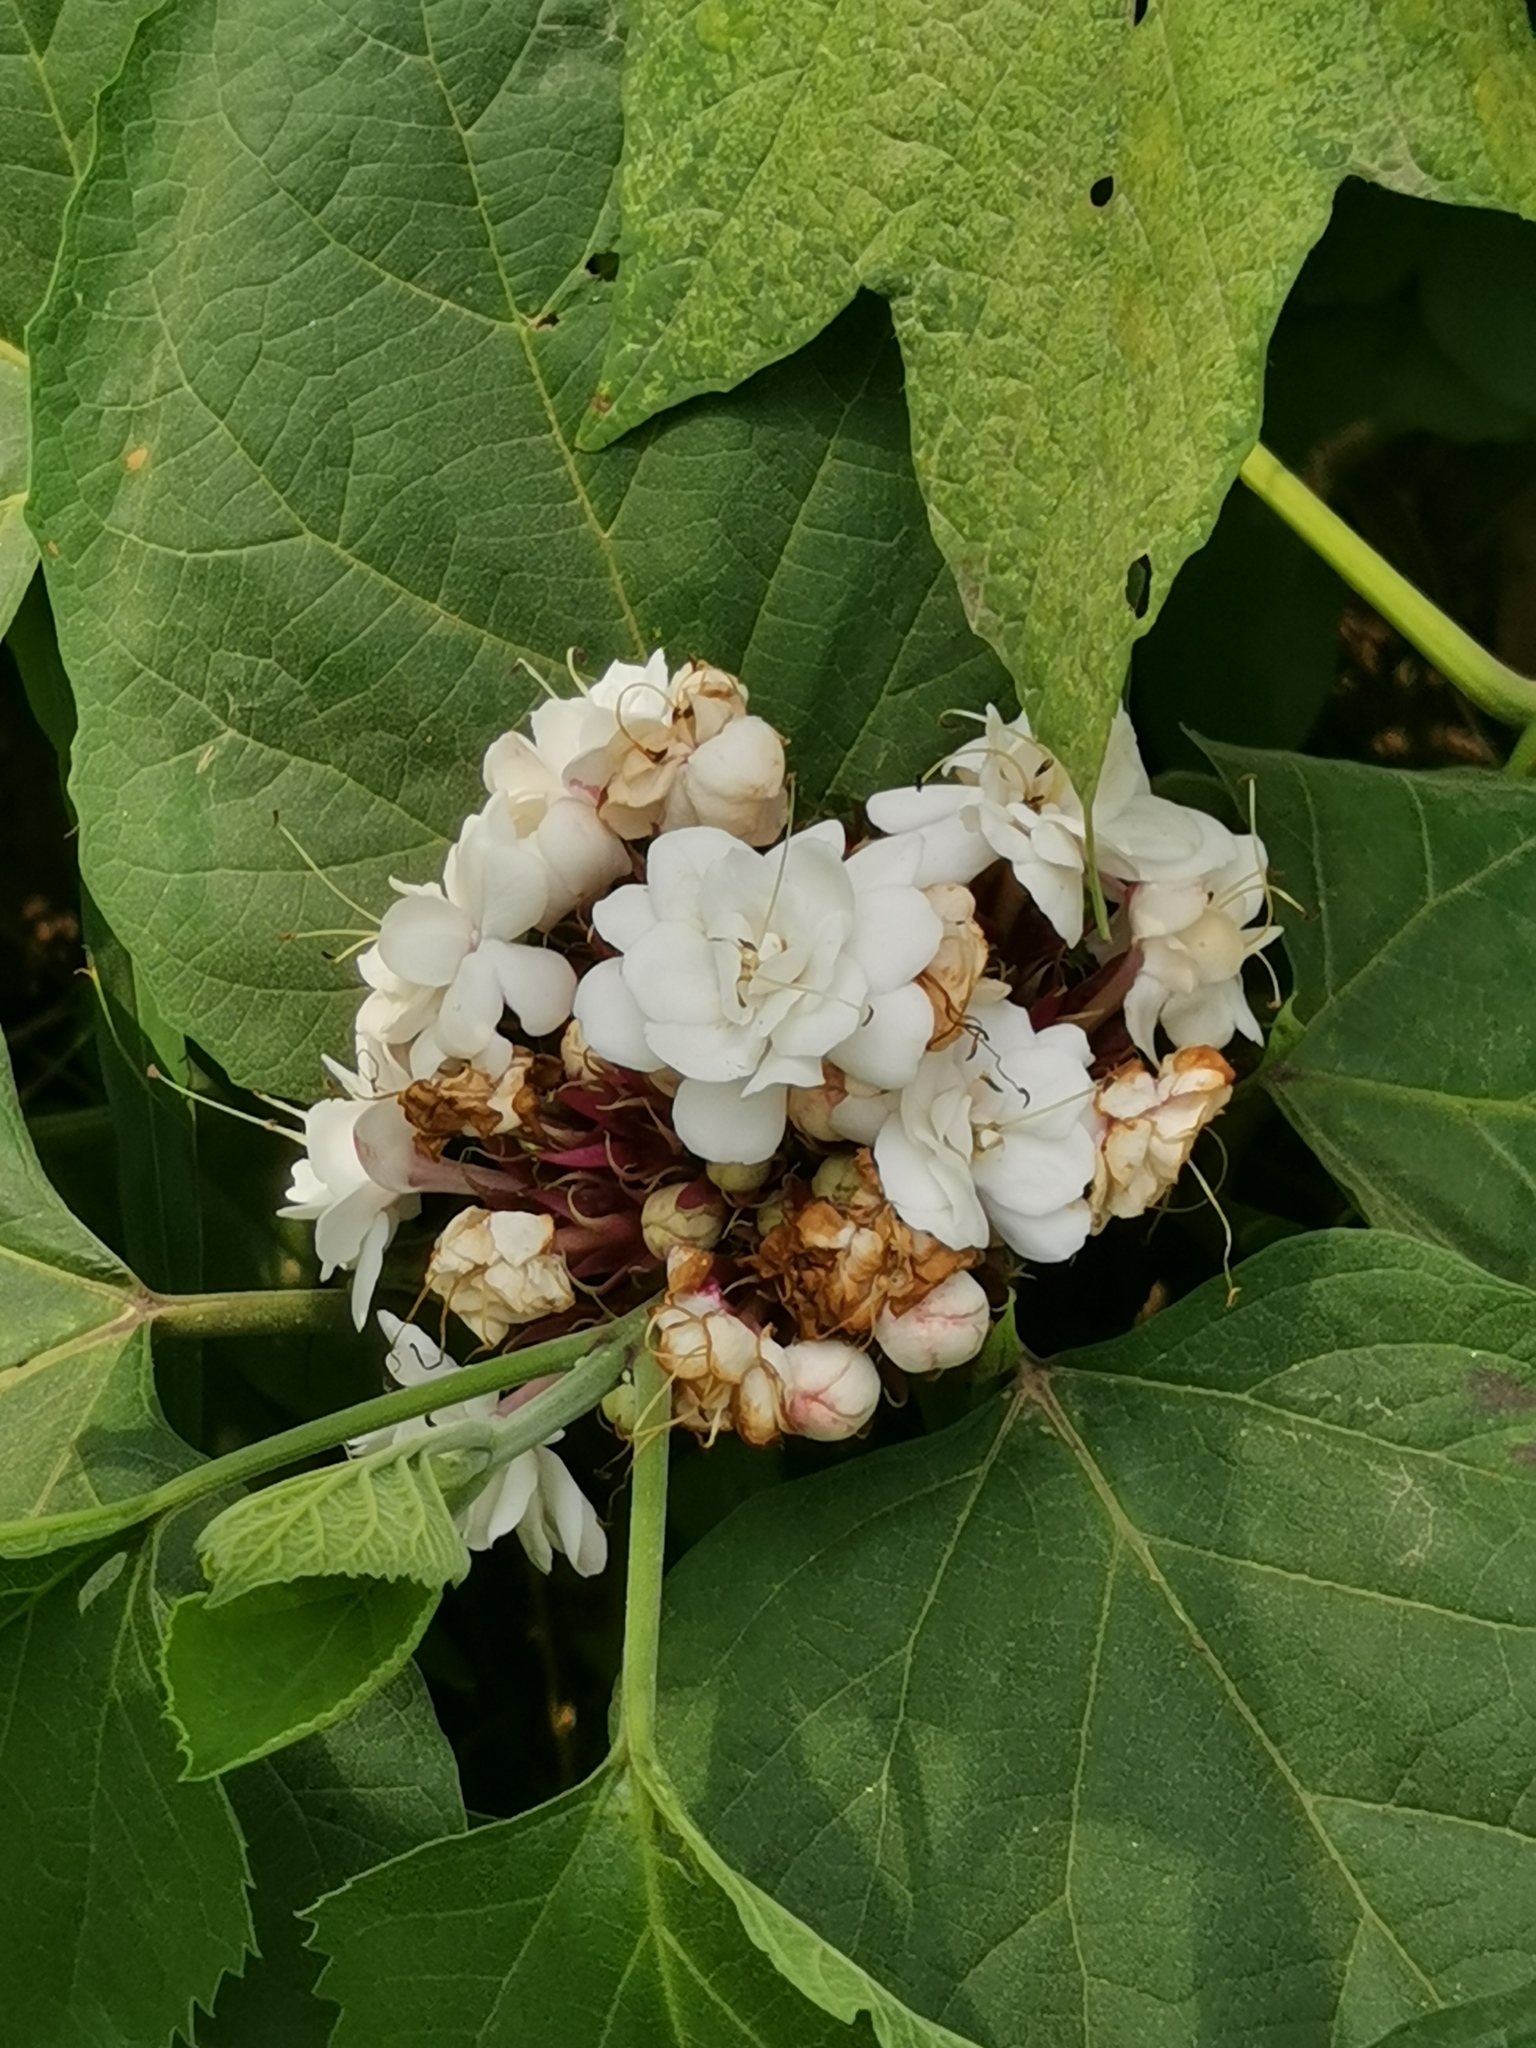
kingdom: Plantae
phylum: Tracheophyta
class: Magnoliopsida
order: Lamiales
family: Lamiaceae
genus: Clerodendrum
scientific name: Clerodendrum chinense
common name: Stickbush
